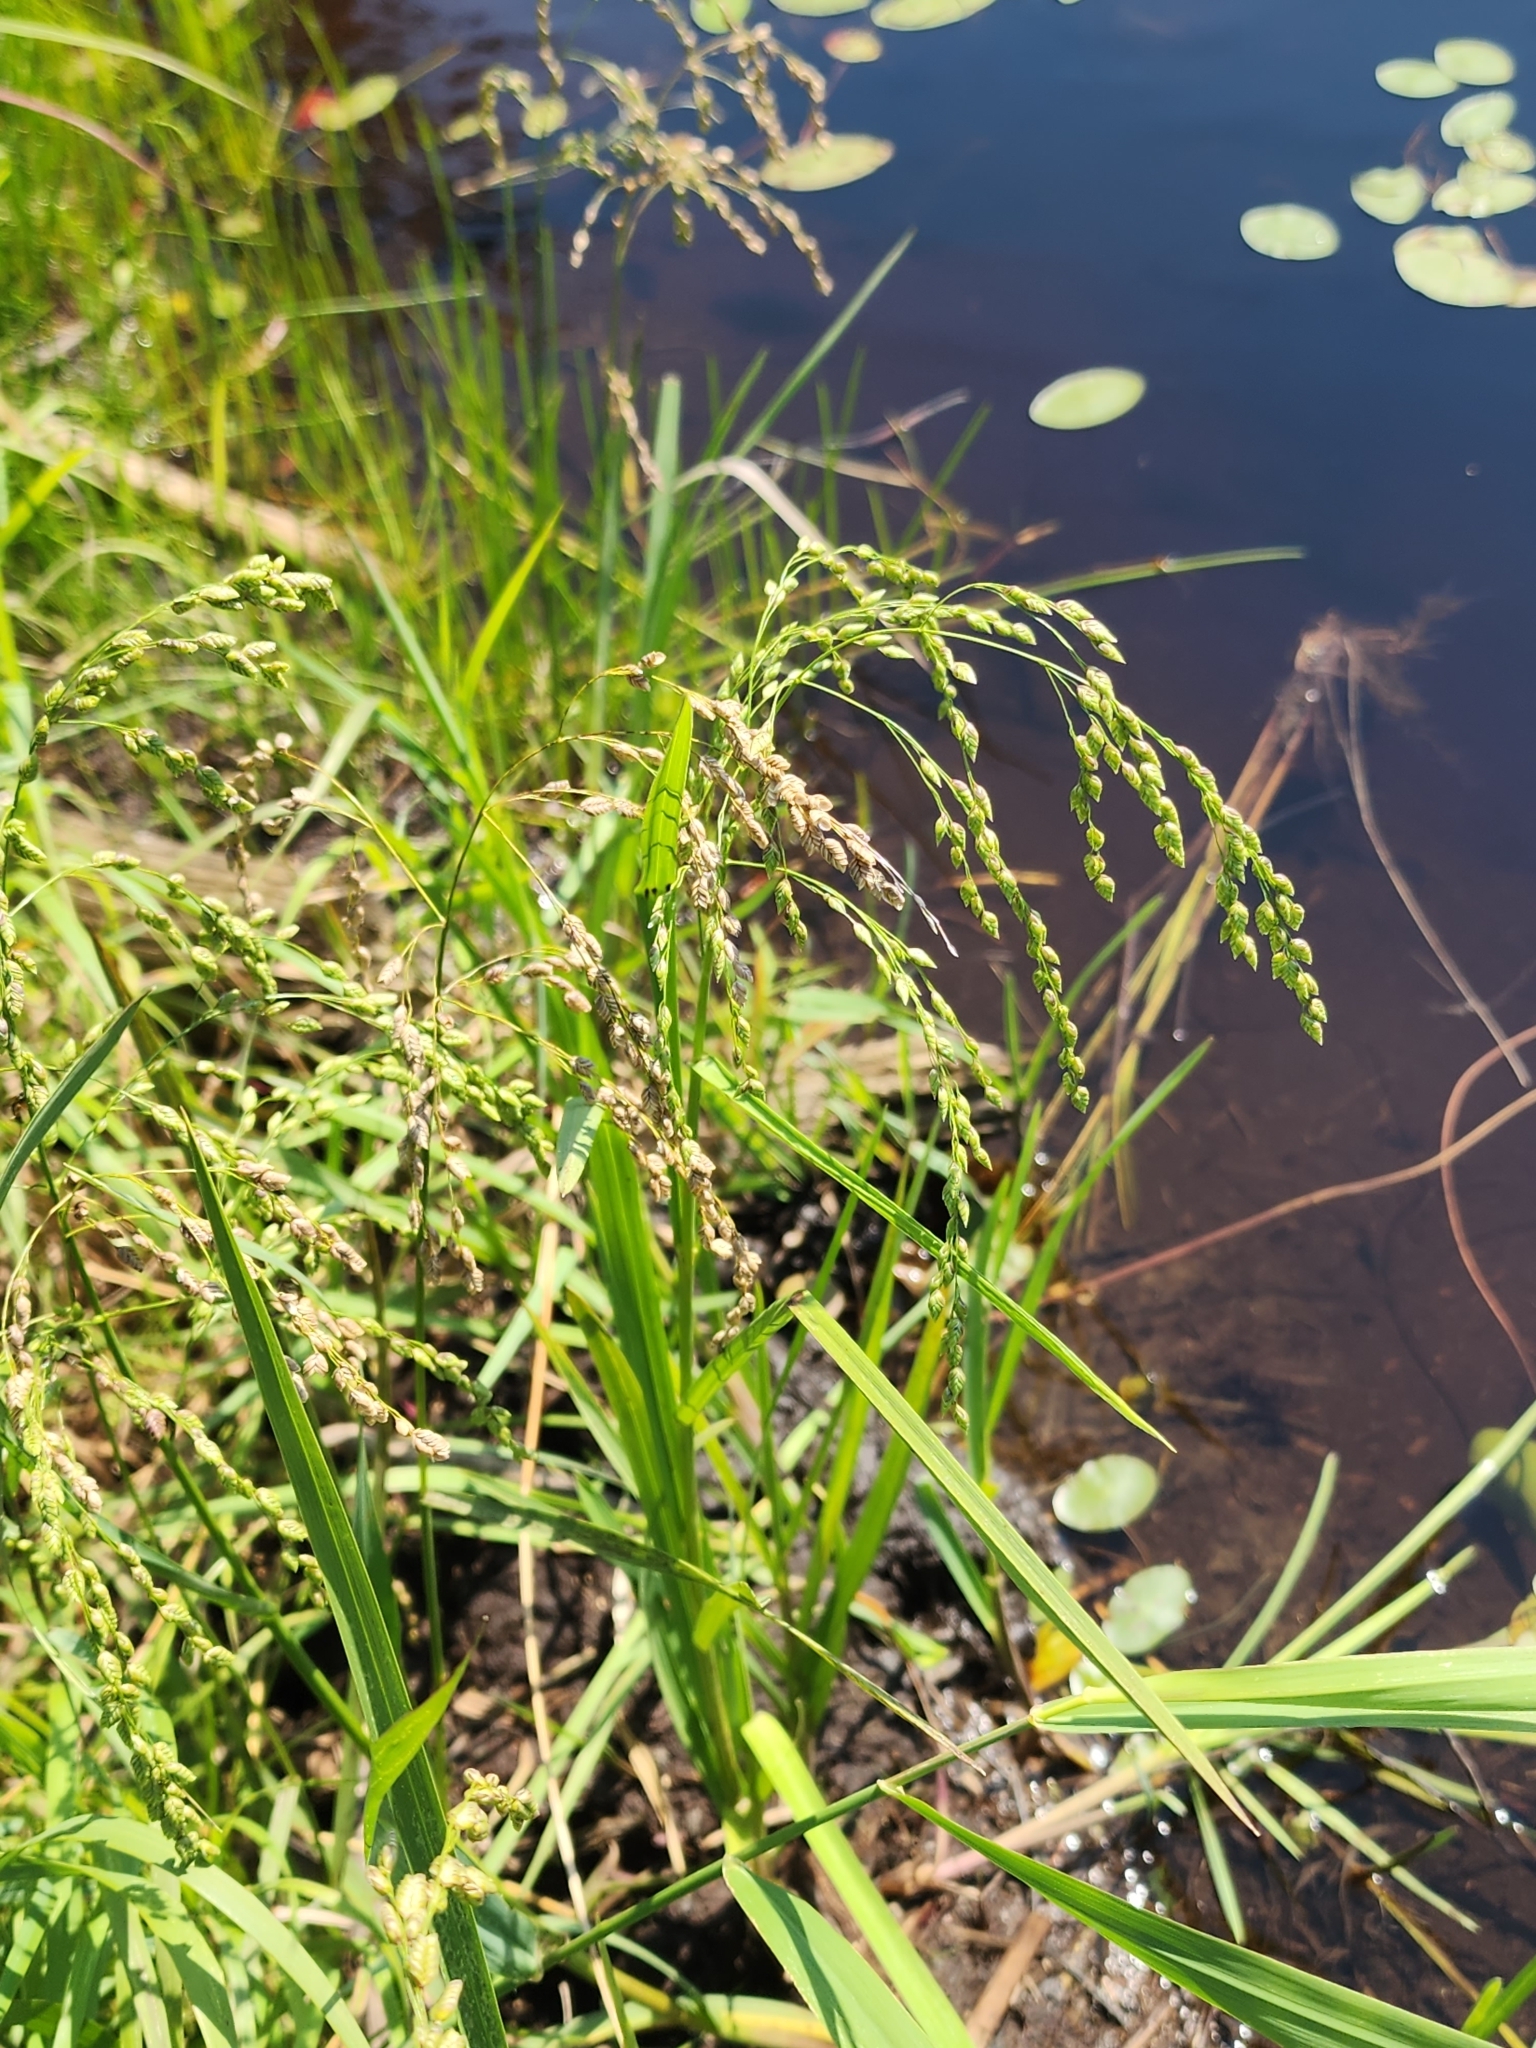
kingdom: Plantae
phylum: Tracheophyta
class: Liliopsida
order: Poales
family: Poaceae
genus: Glyceria
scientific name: Glyceria canadensis
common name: Canada mannagrass
